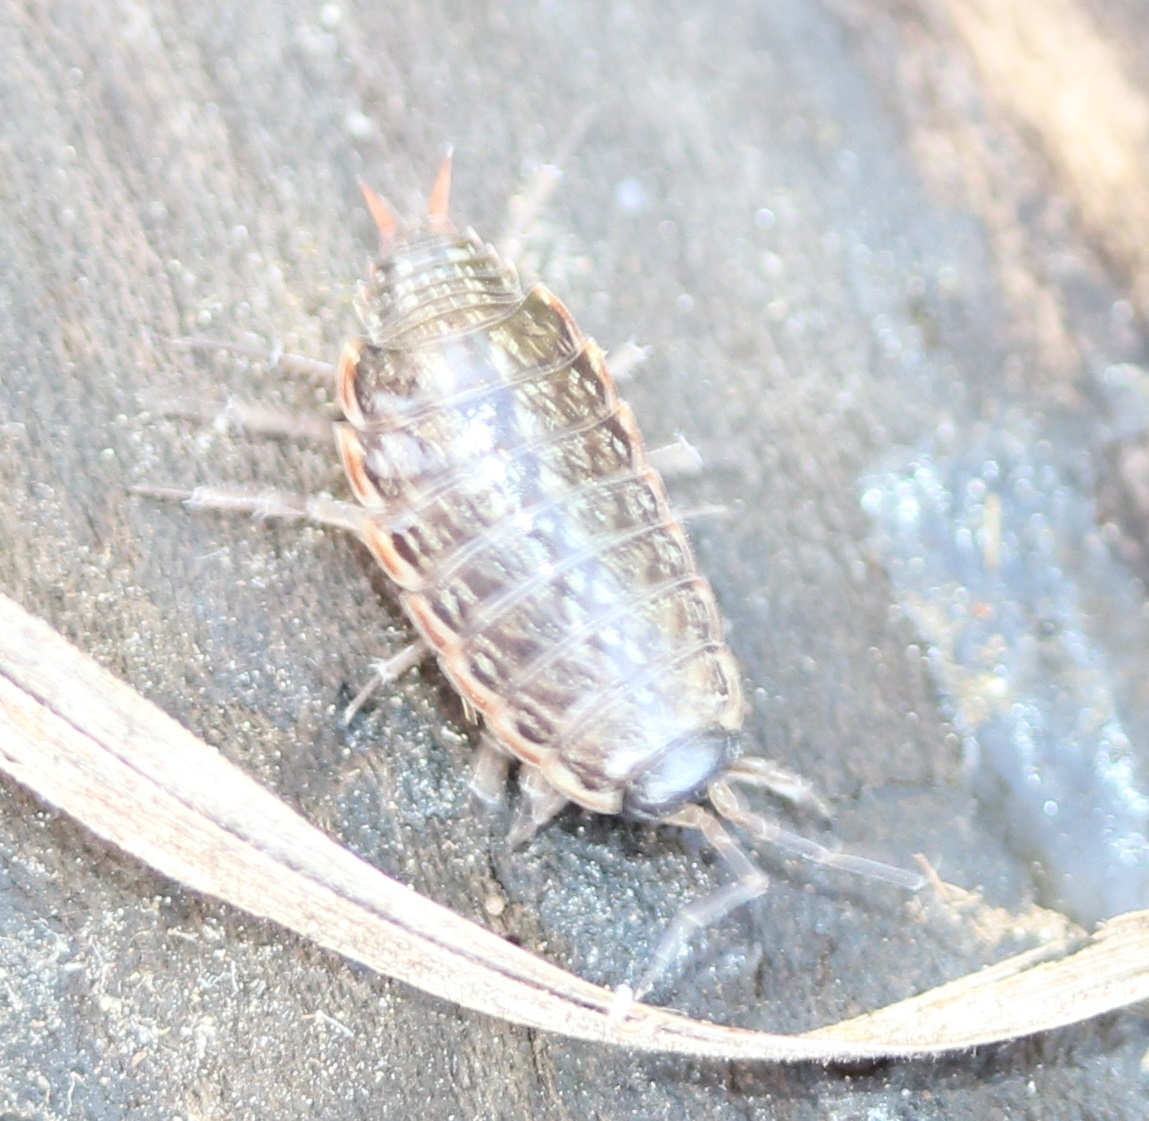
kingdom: Animalia
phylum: Arthropoda
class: Malacostraca
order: Isopoda
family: Philosciidae
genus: Philoscia
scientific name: Philoscia muscorum
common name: Common striped woodlouse
